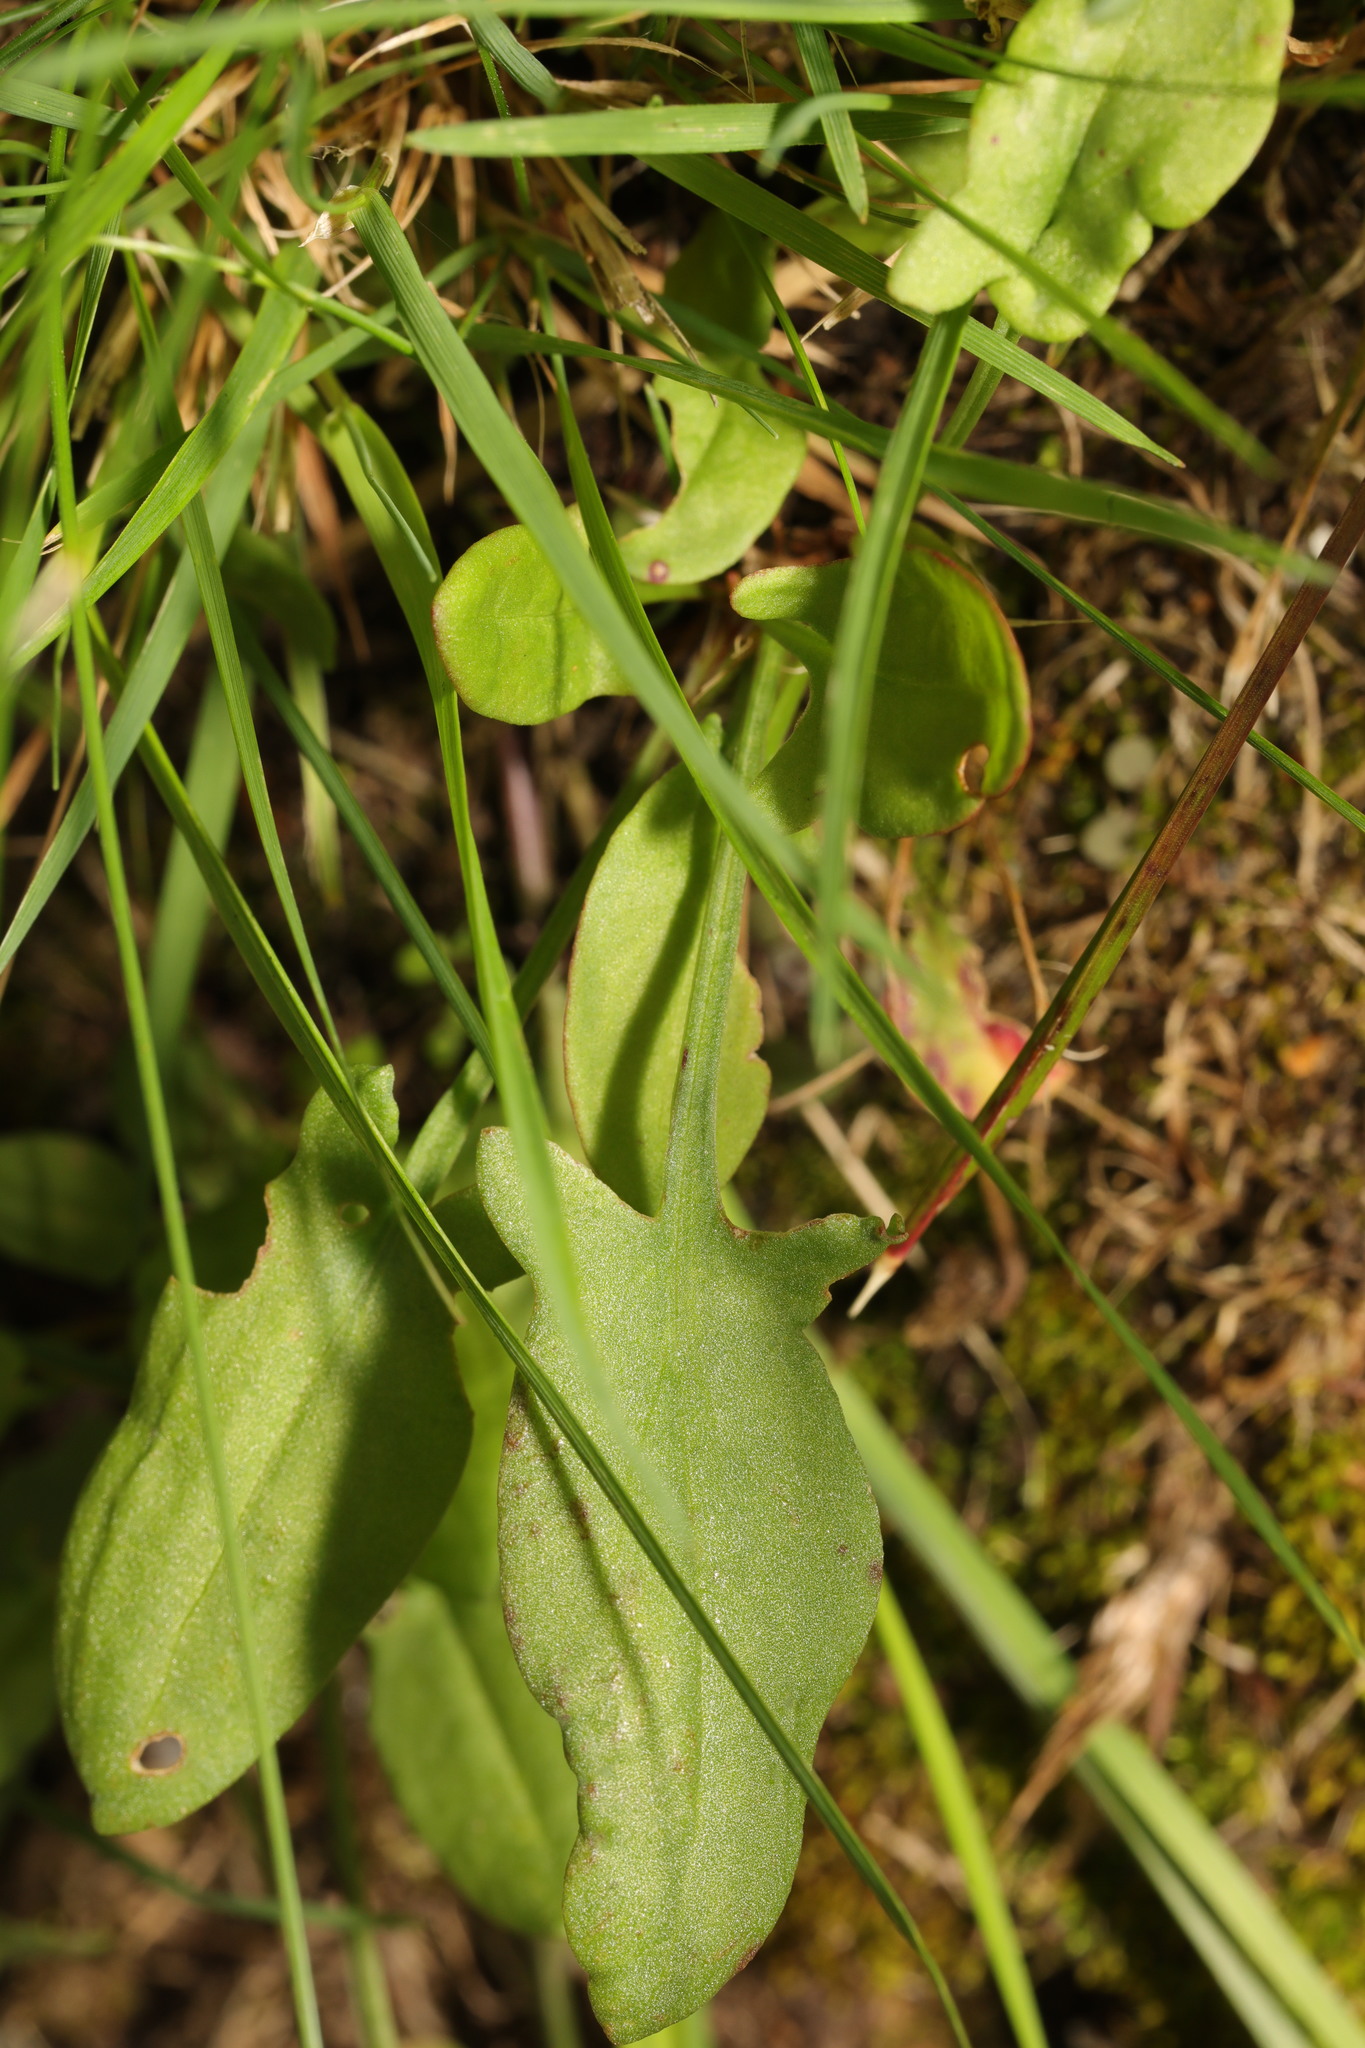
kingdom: Plantae
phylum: Tracheophyta
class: Magnoliopsida
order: Caryophyllales
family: Polygonaceae
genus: Rumex
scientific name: Rumex acetosella
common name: Common sheep sorrel
